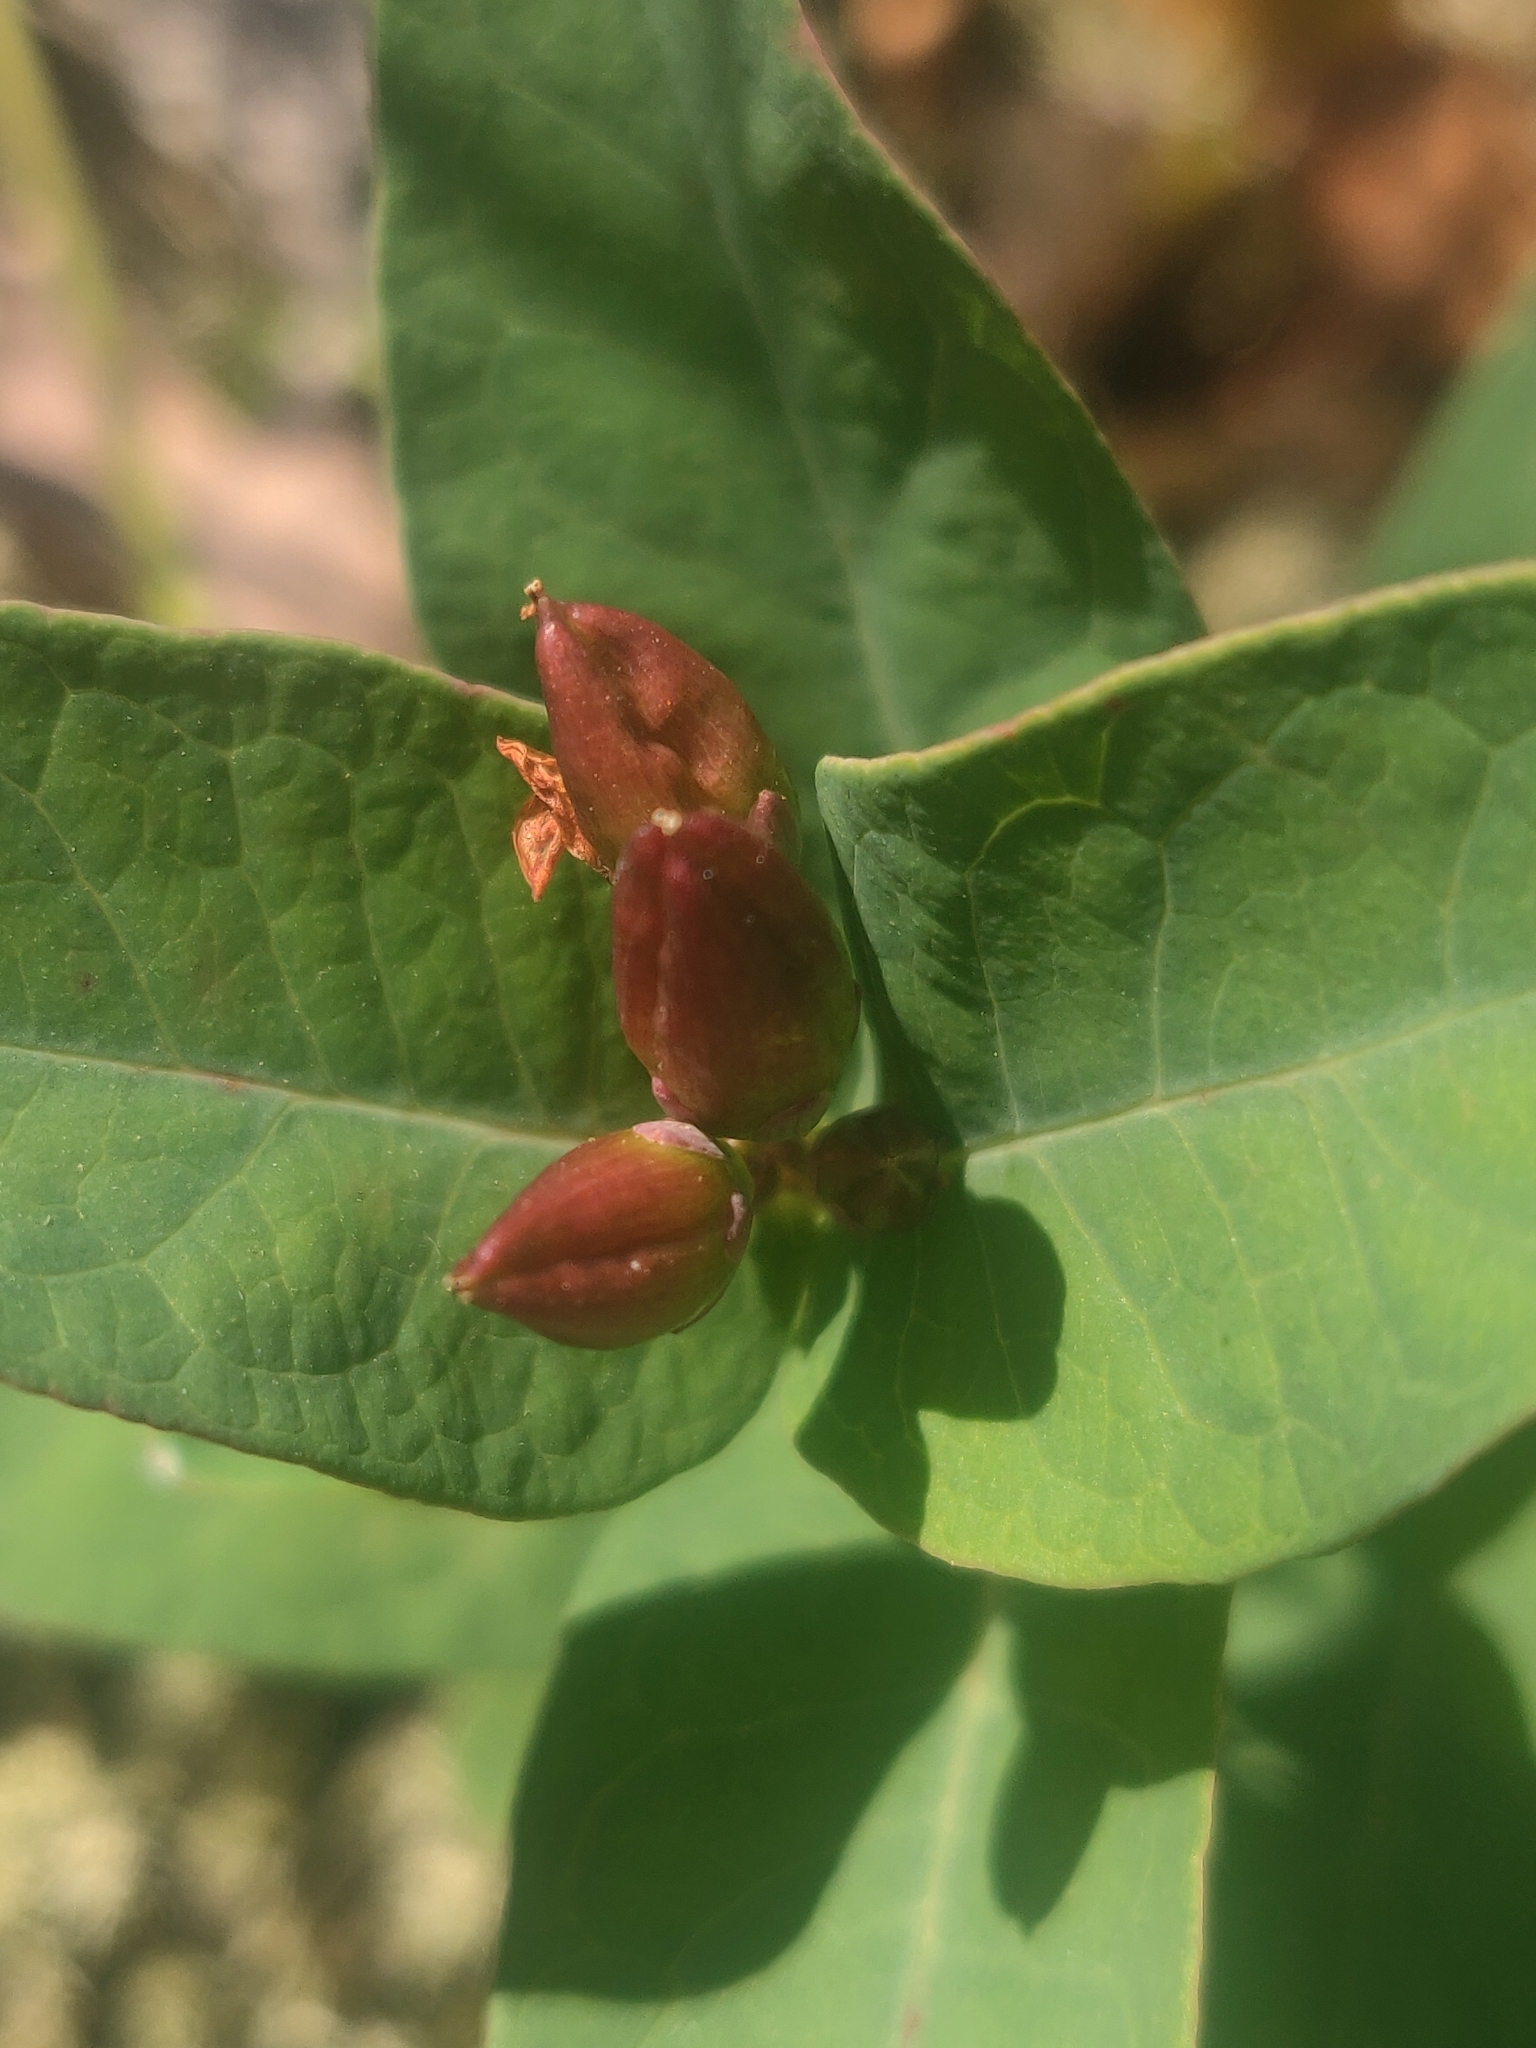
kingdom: Plantae
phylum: Tracheophyta
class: Magnoliopsida
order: Malpighiales
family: Hypericaceae
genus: Triadenum
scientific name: Triadenum fraseri
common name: Fraser's marsh st. johnswort
